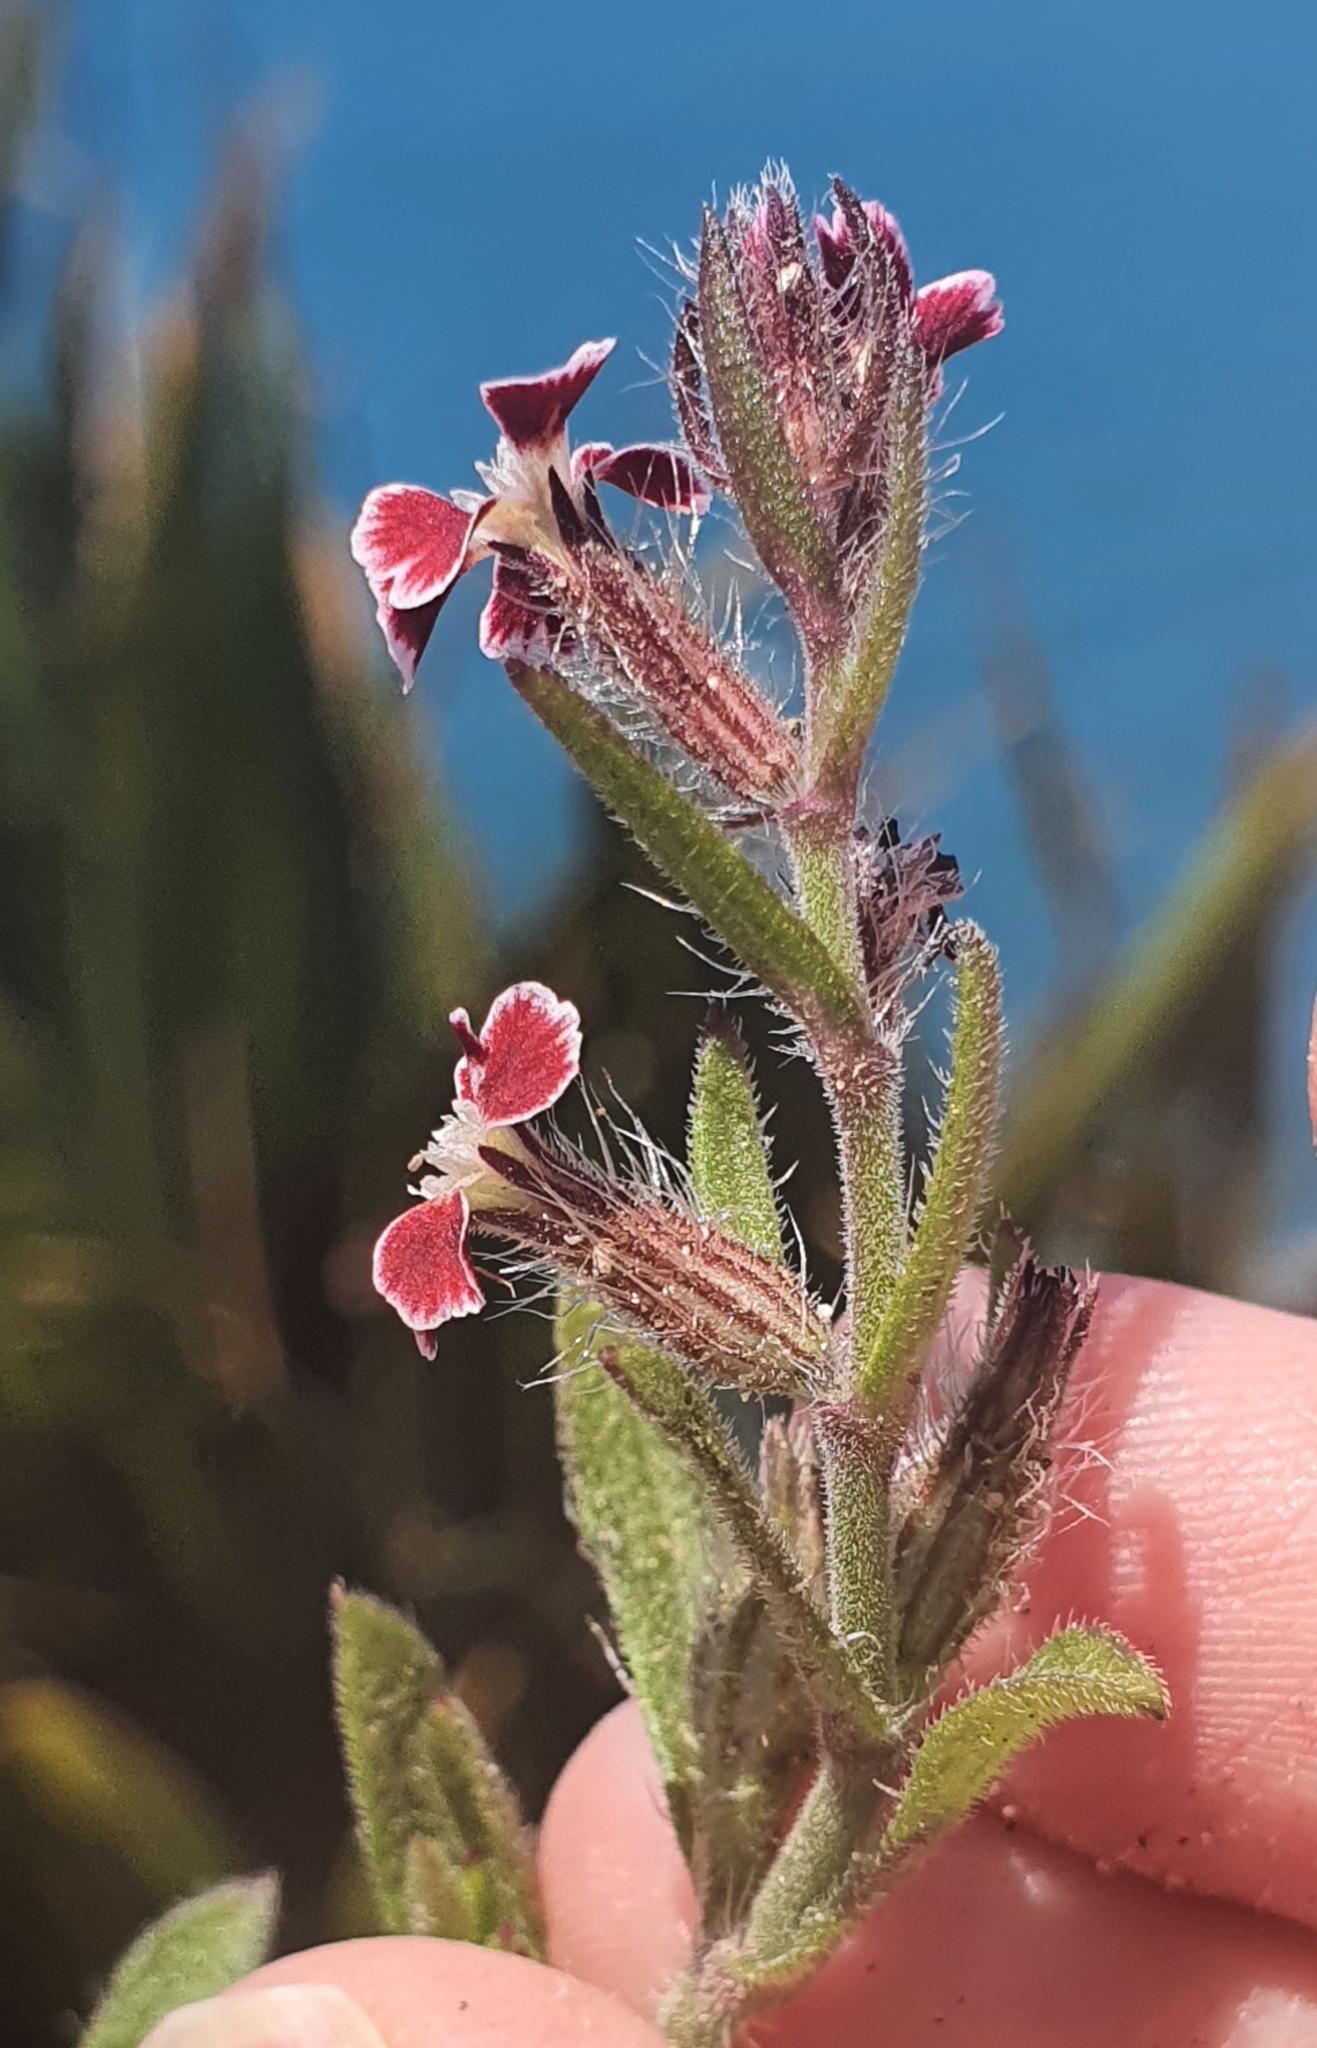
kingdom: Plantae
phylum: Tracheophyta
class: Magnoliopsida
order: Caryophyllales
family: Caryophyllaceae
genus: Silene
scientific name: Silene gallica
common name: Small-flowered catchfly
